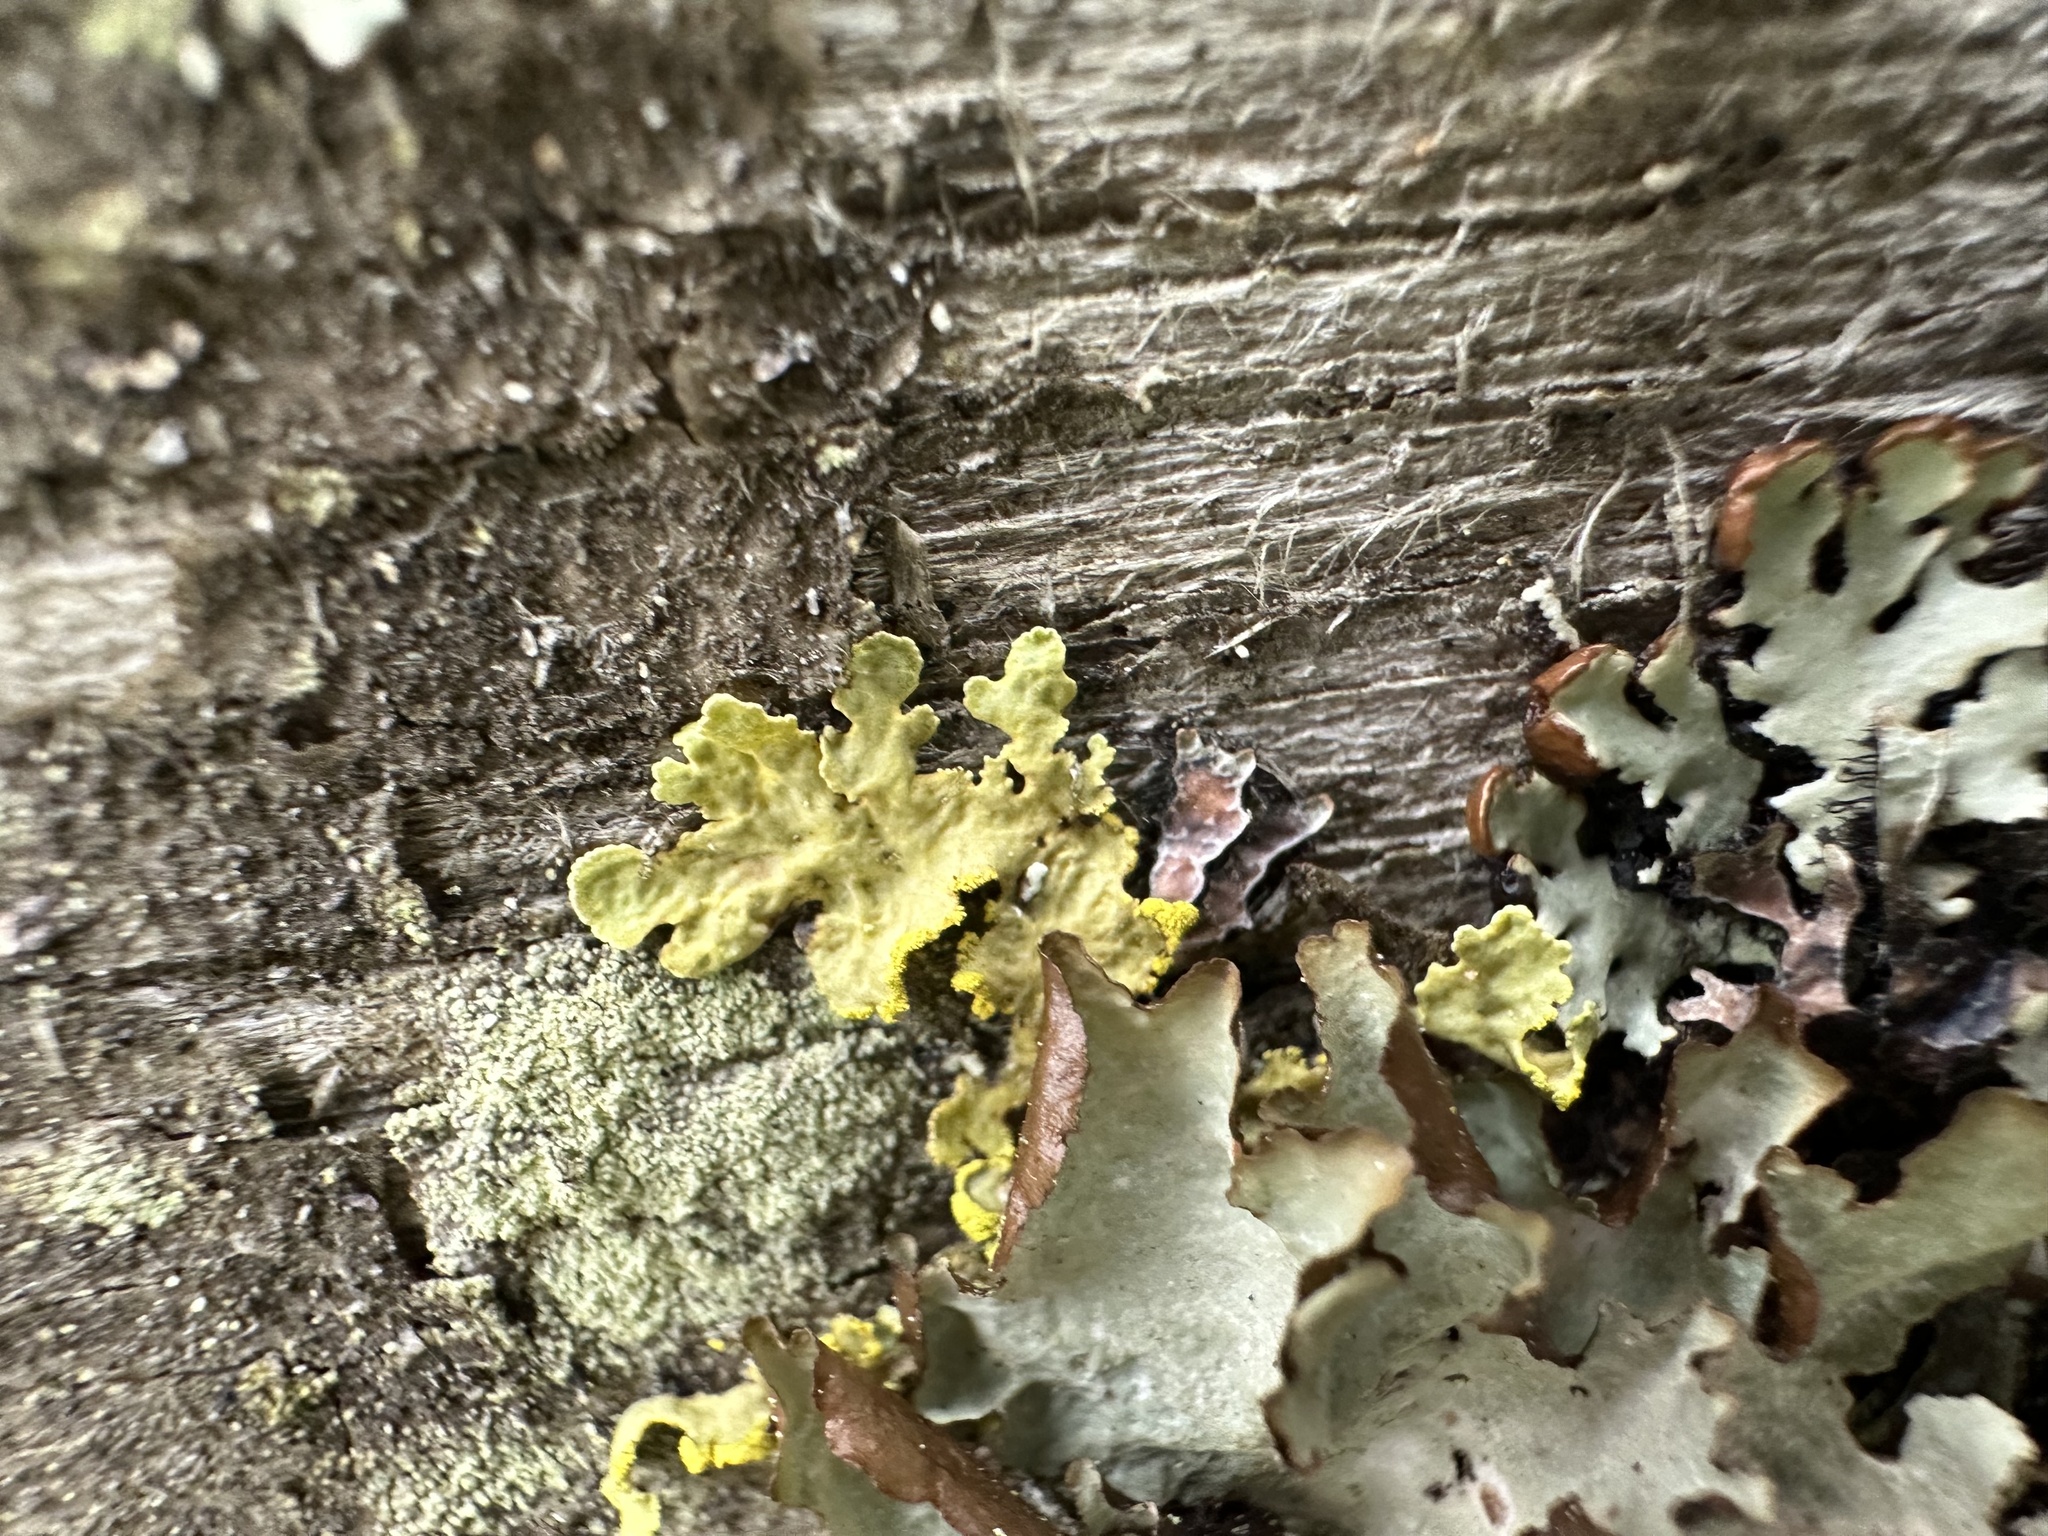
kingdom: Fungi
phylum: Ascomycota
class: Lecanoromycetes
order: Lecanorales
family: Parmeliaceae
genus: Vulpicida
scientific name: Vulpicida pinastri
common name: Powdered sunshine lichen
